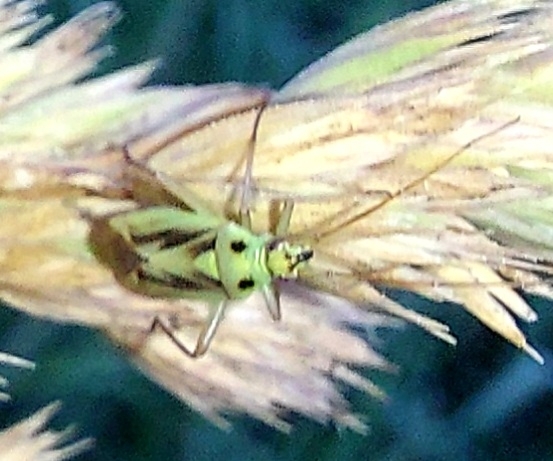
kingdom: Animalia
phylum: Arthropoda
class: Insecta
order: Hemiptera
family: Miridae
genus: Stenotus
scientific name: Stenotus binotatus
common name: Plant bug
